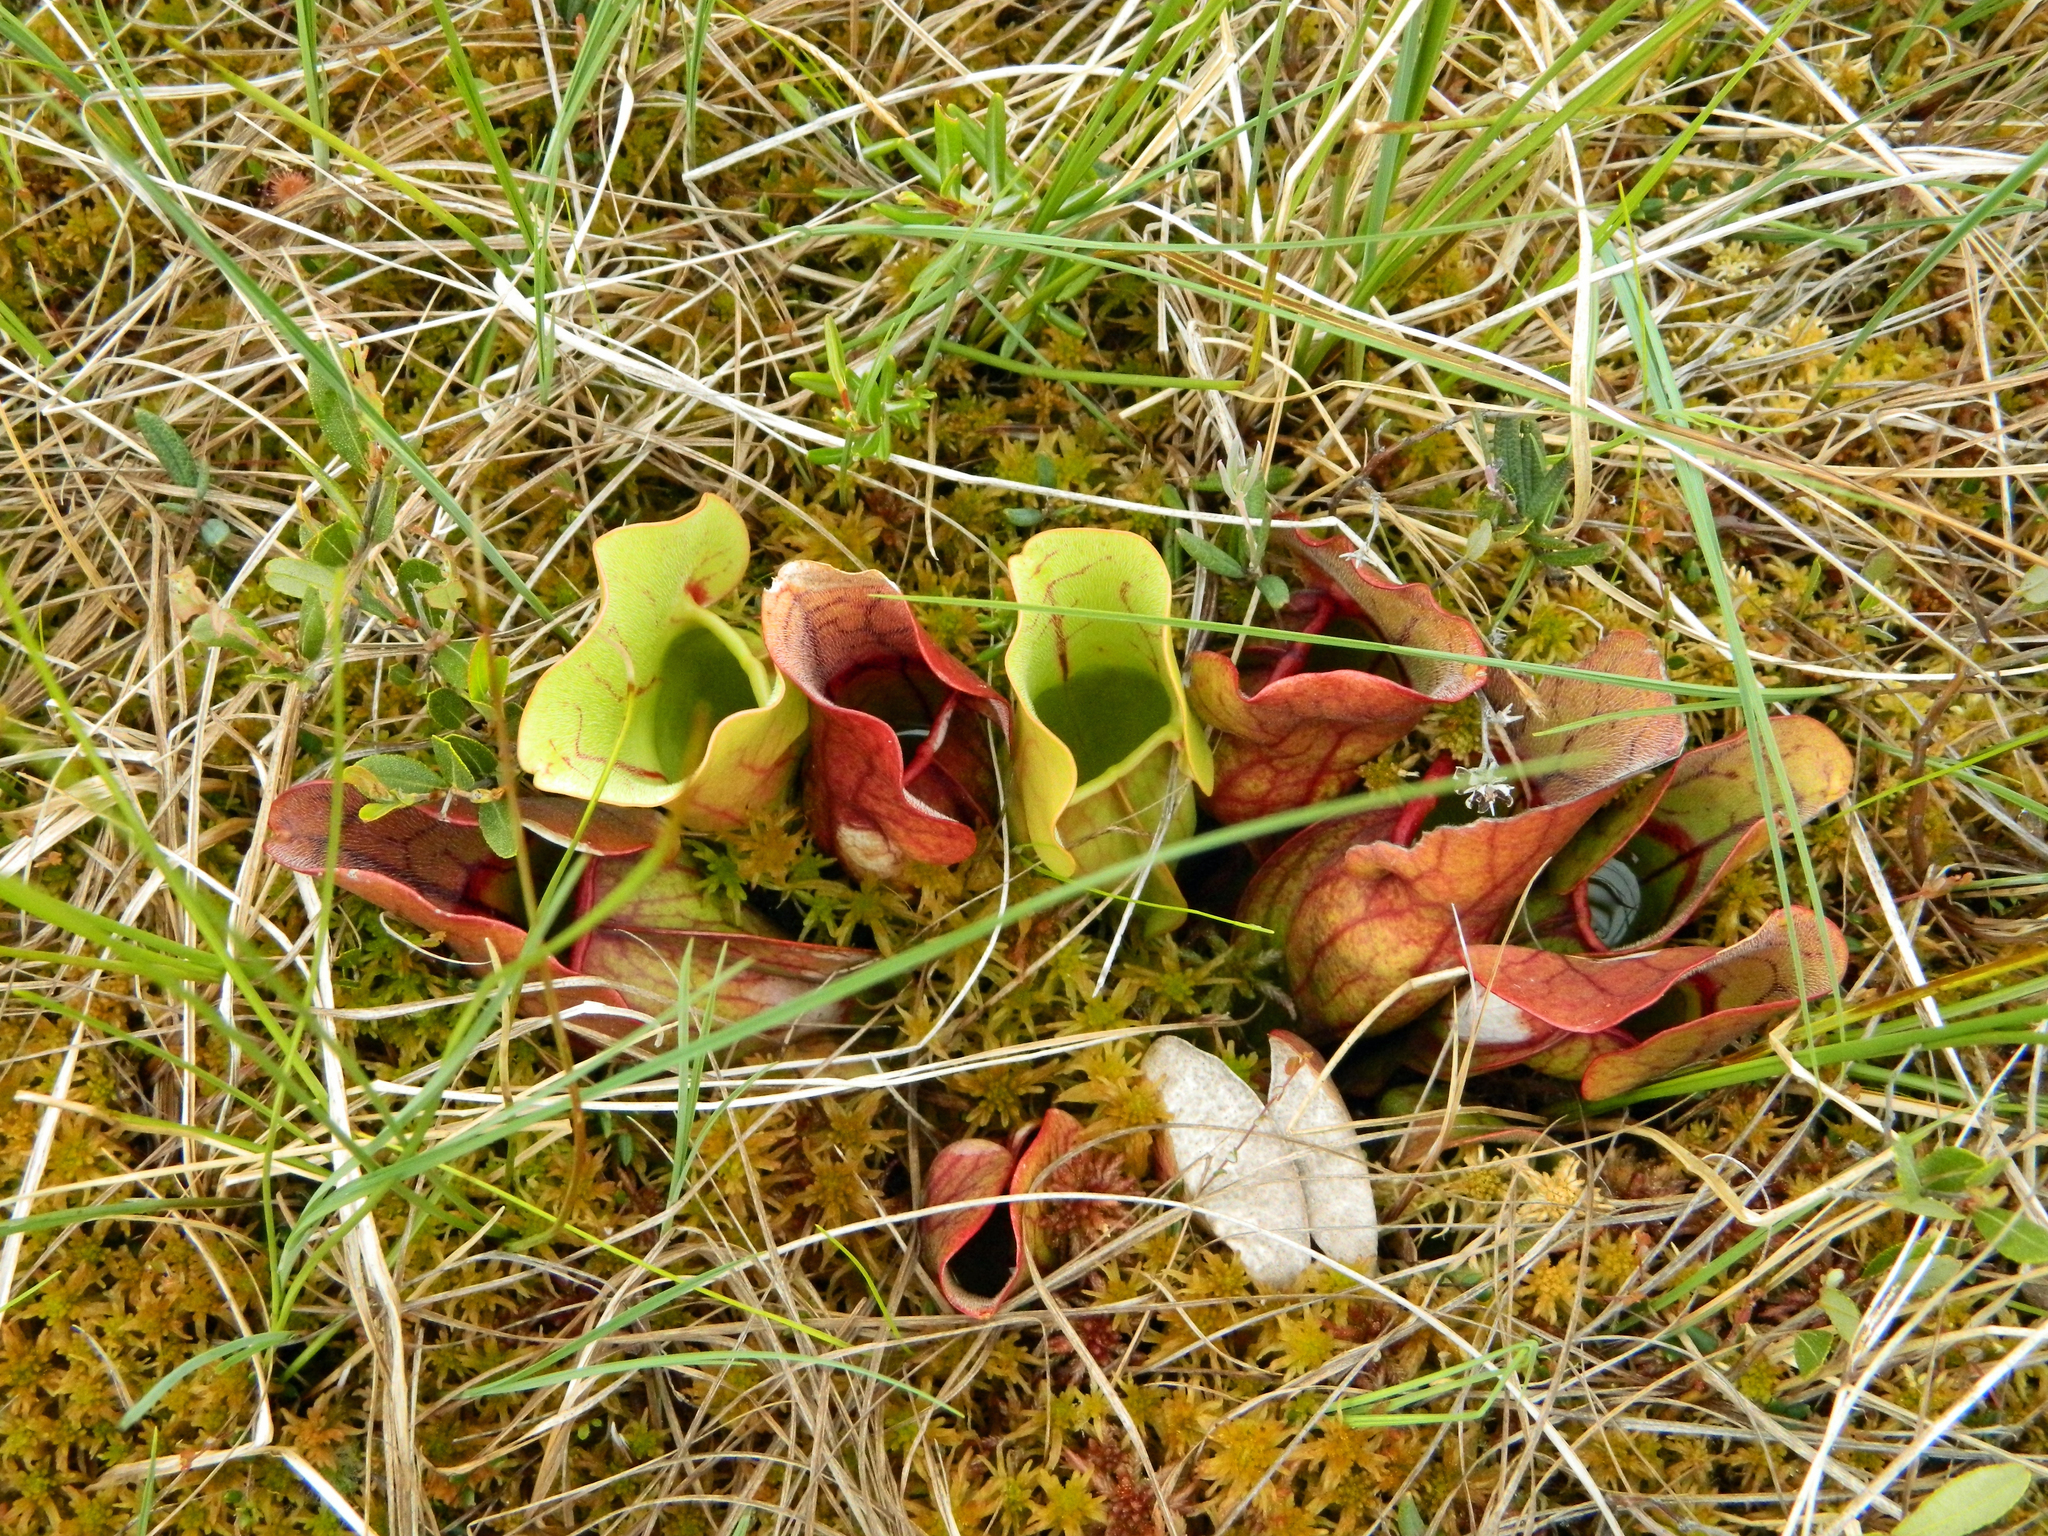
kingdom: Plantae
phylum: Tracheophyta
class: Magnoliopsida
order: Ericales
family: Sarraceniaceae
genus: Sarracenia
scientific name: Sarracenia purpurea
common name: Pitcherplant
